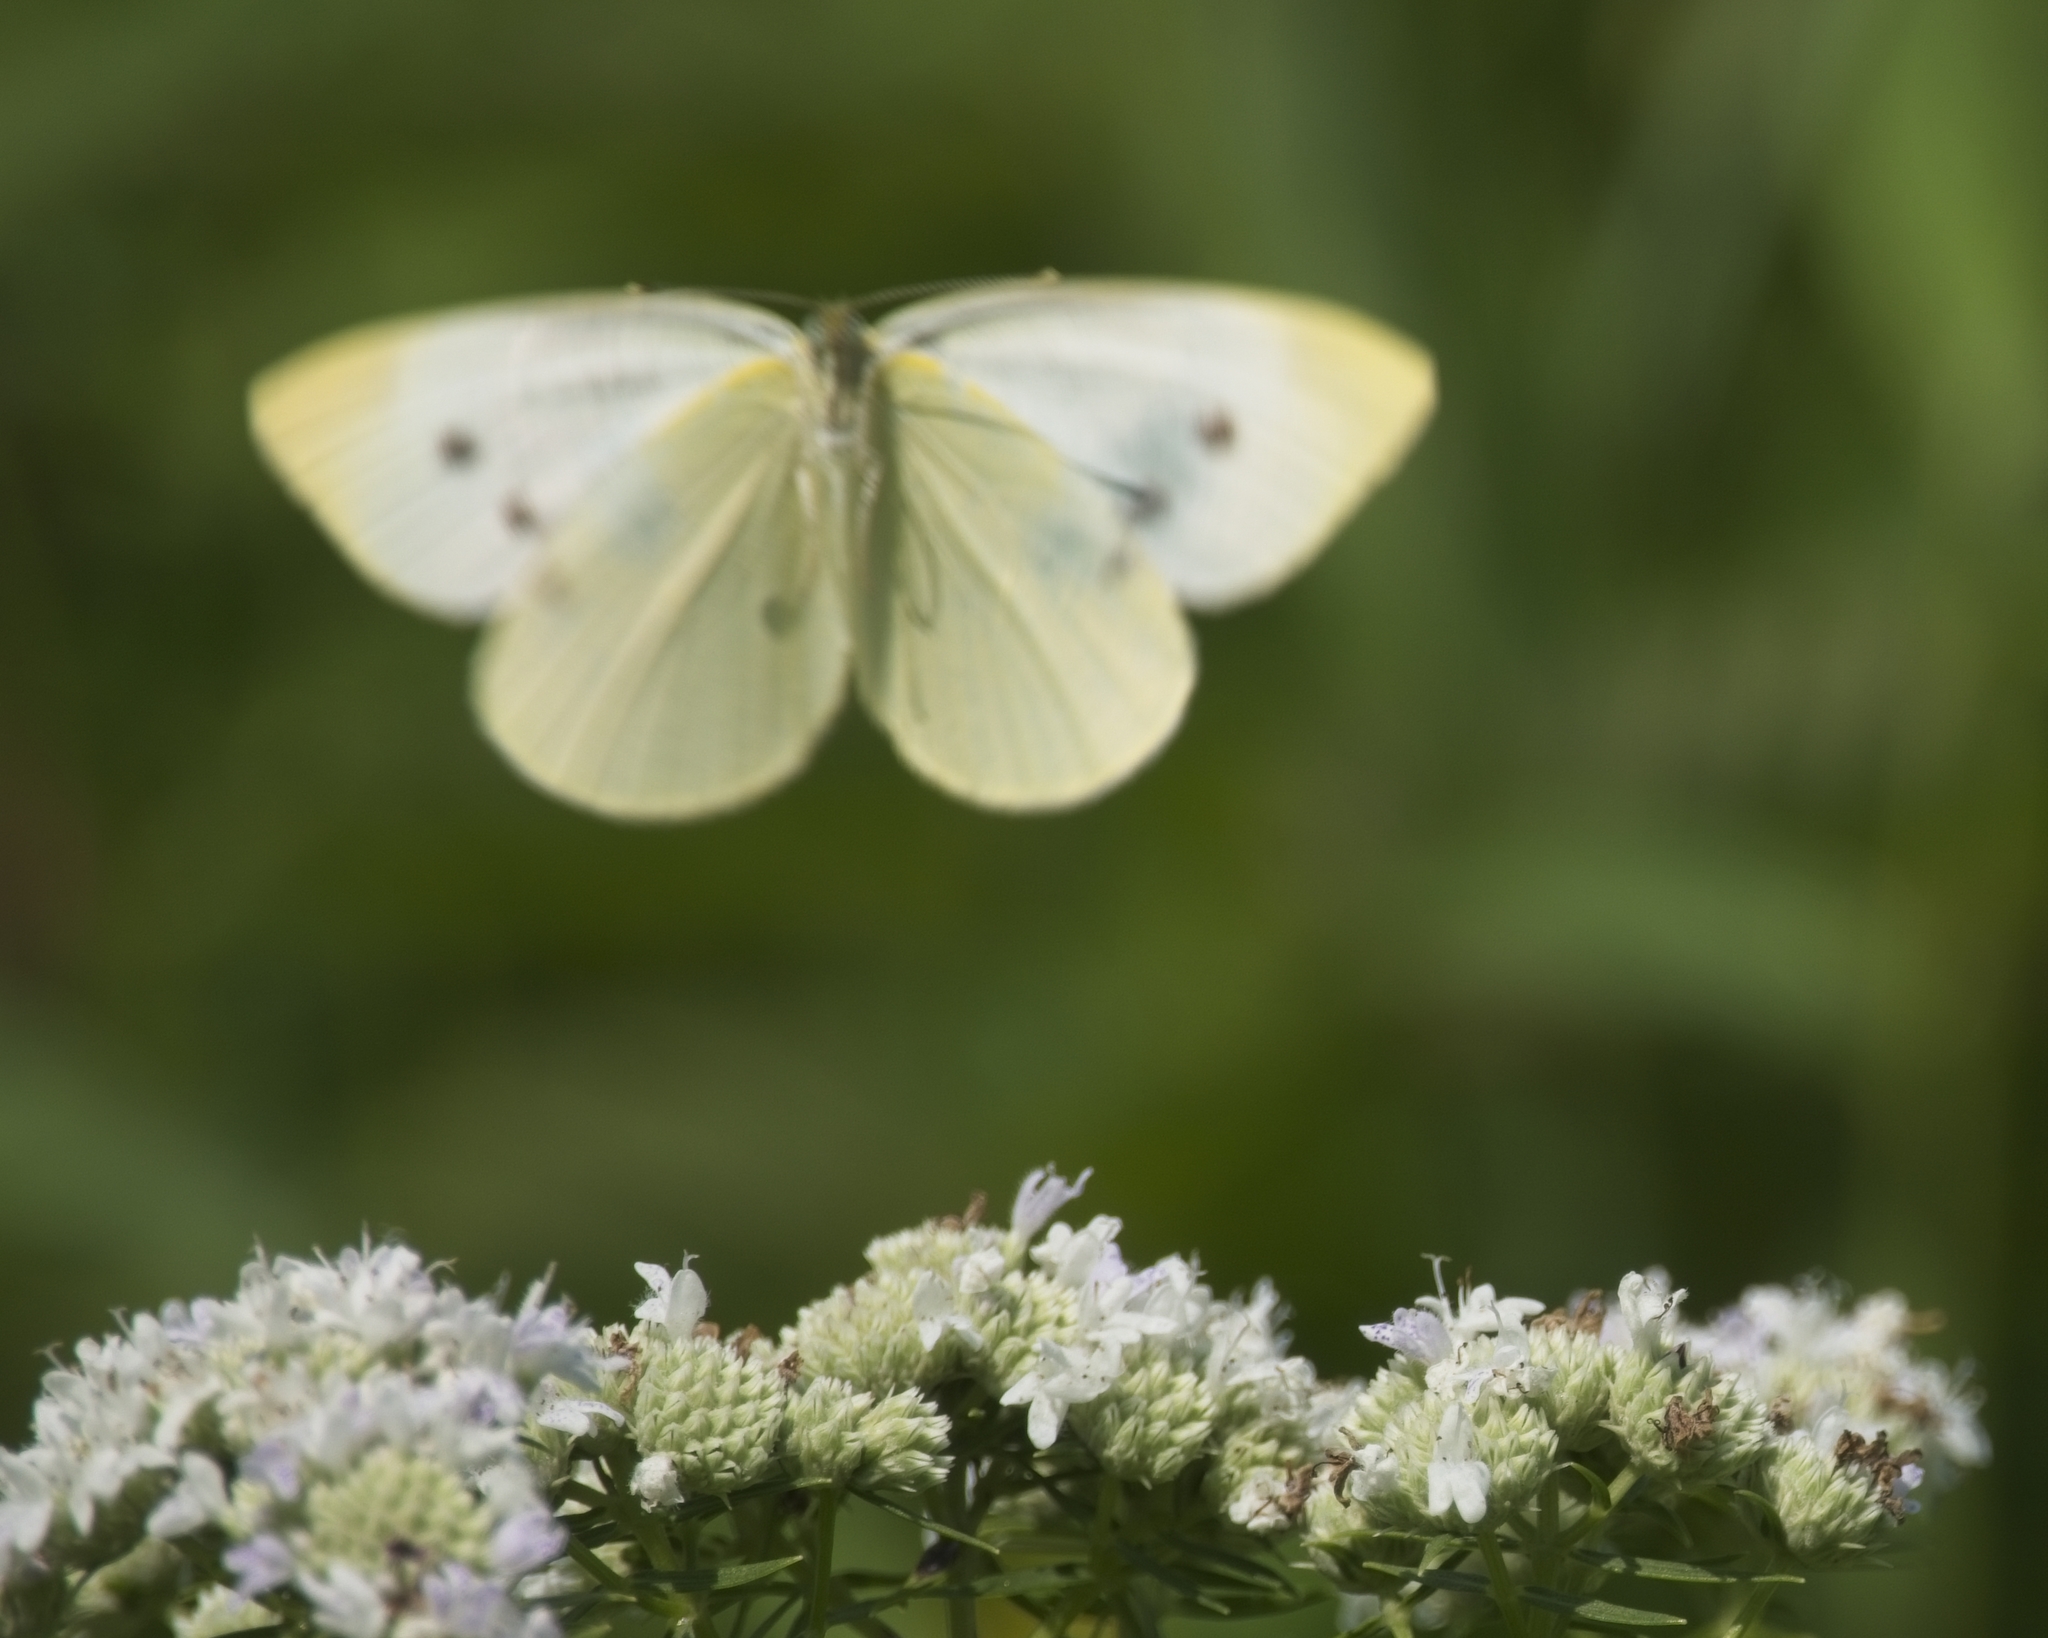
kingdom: Animalia
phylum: Arthropoda
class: Insecta
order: Lepidoptera
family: Pieridae
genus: Pieris
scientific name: Pieris rapae
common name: Small white
